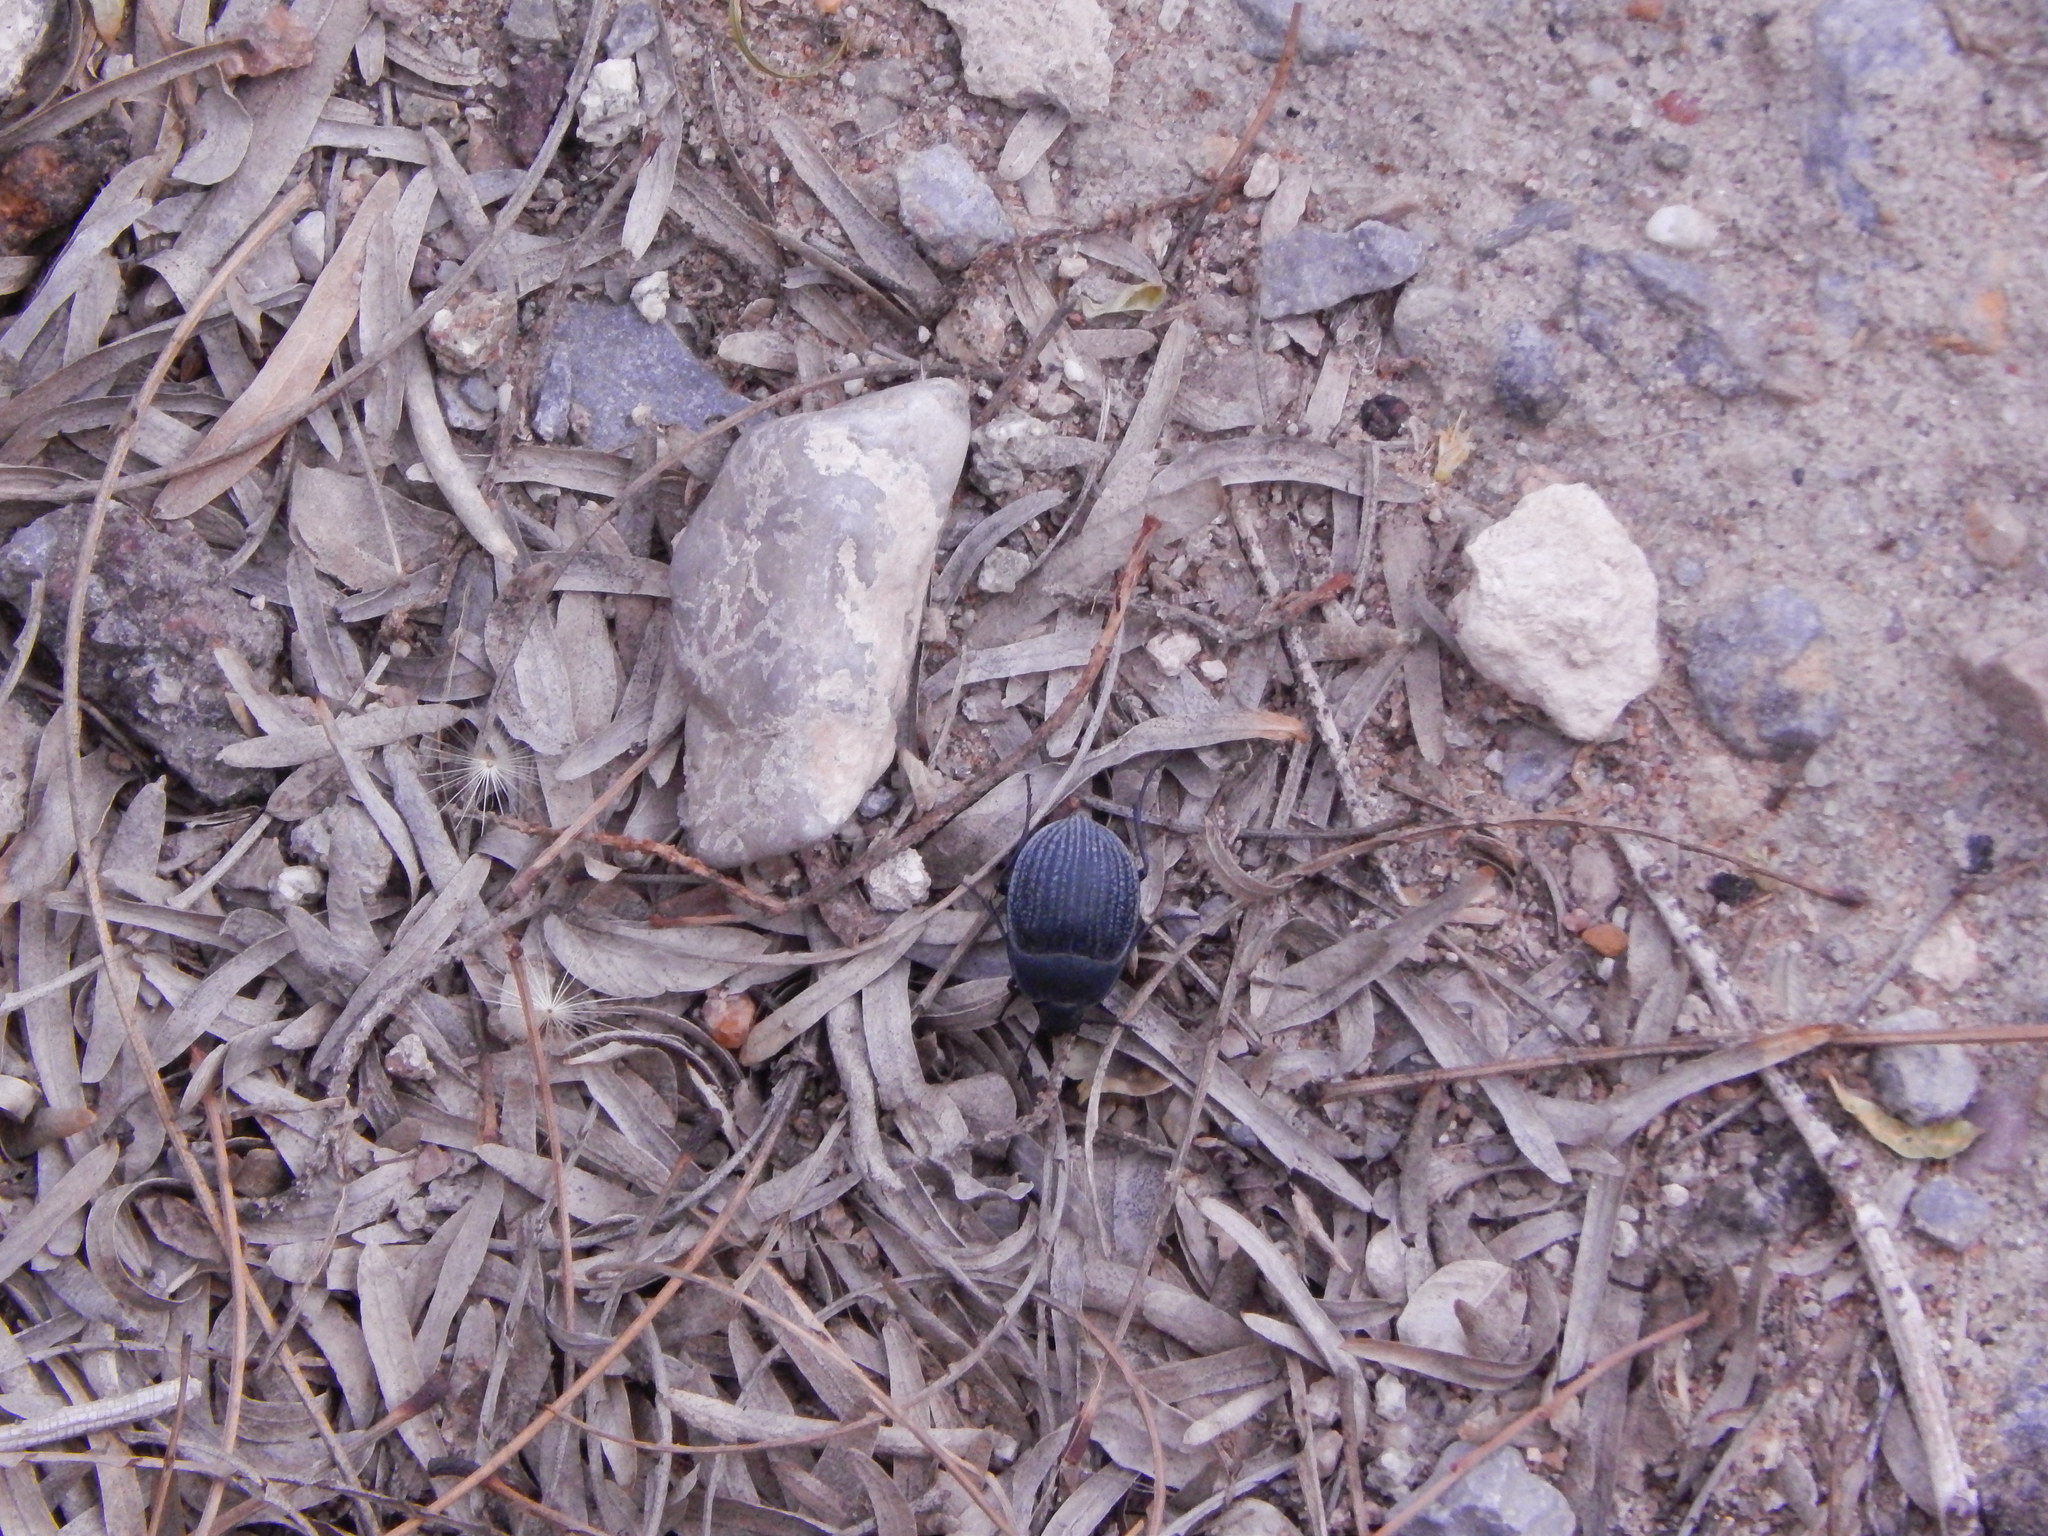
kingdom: Animalia
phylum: Arthropoda
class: Insecta
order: Coleoptera
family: Tenebrionidae
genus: Eusattus
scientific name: Eusattus reticulatus
